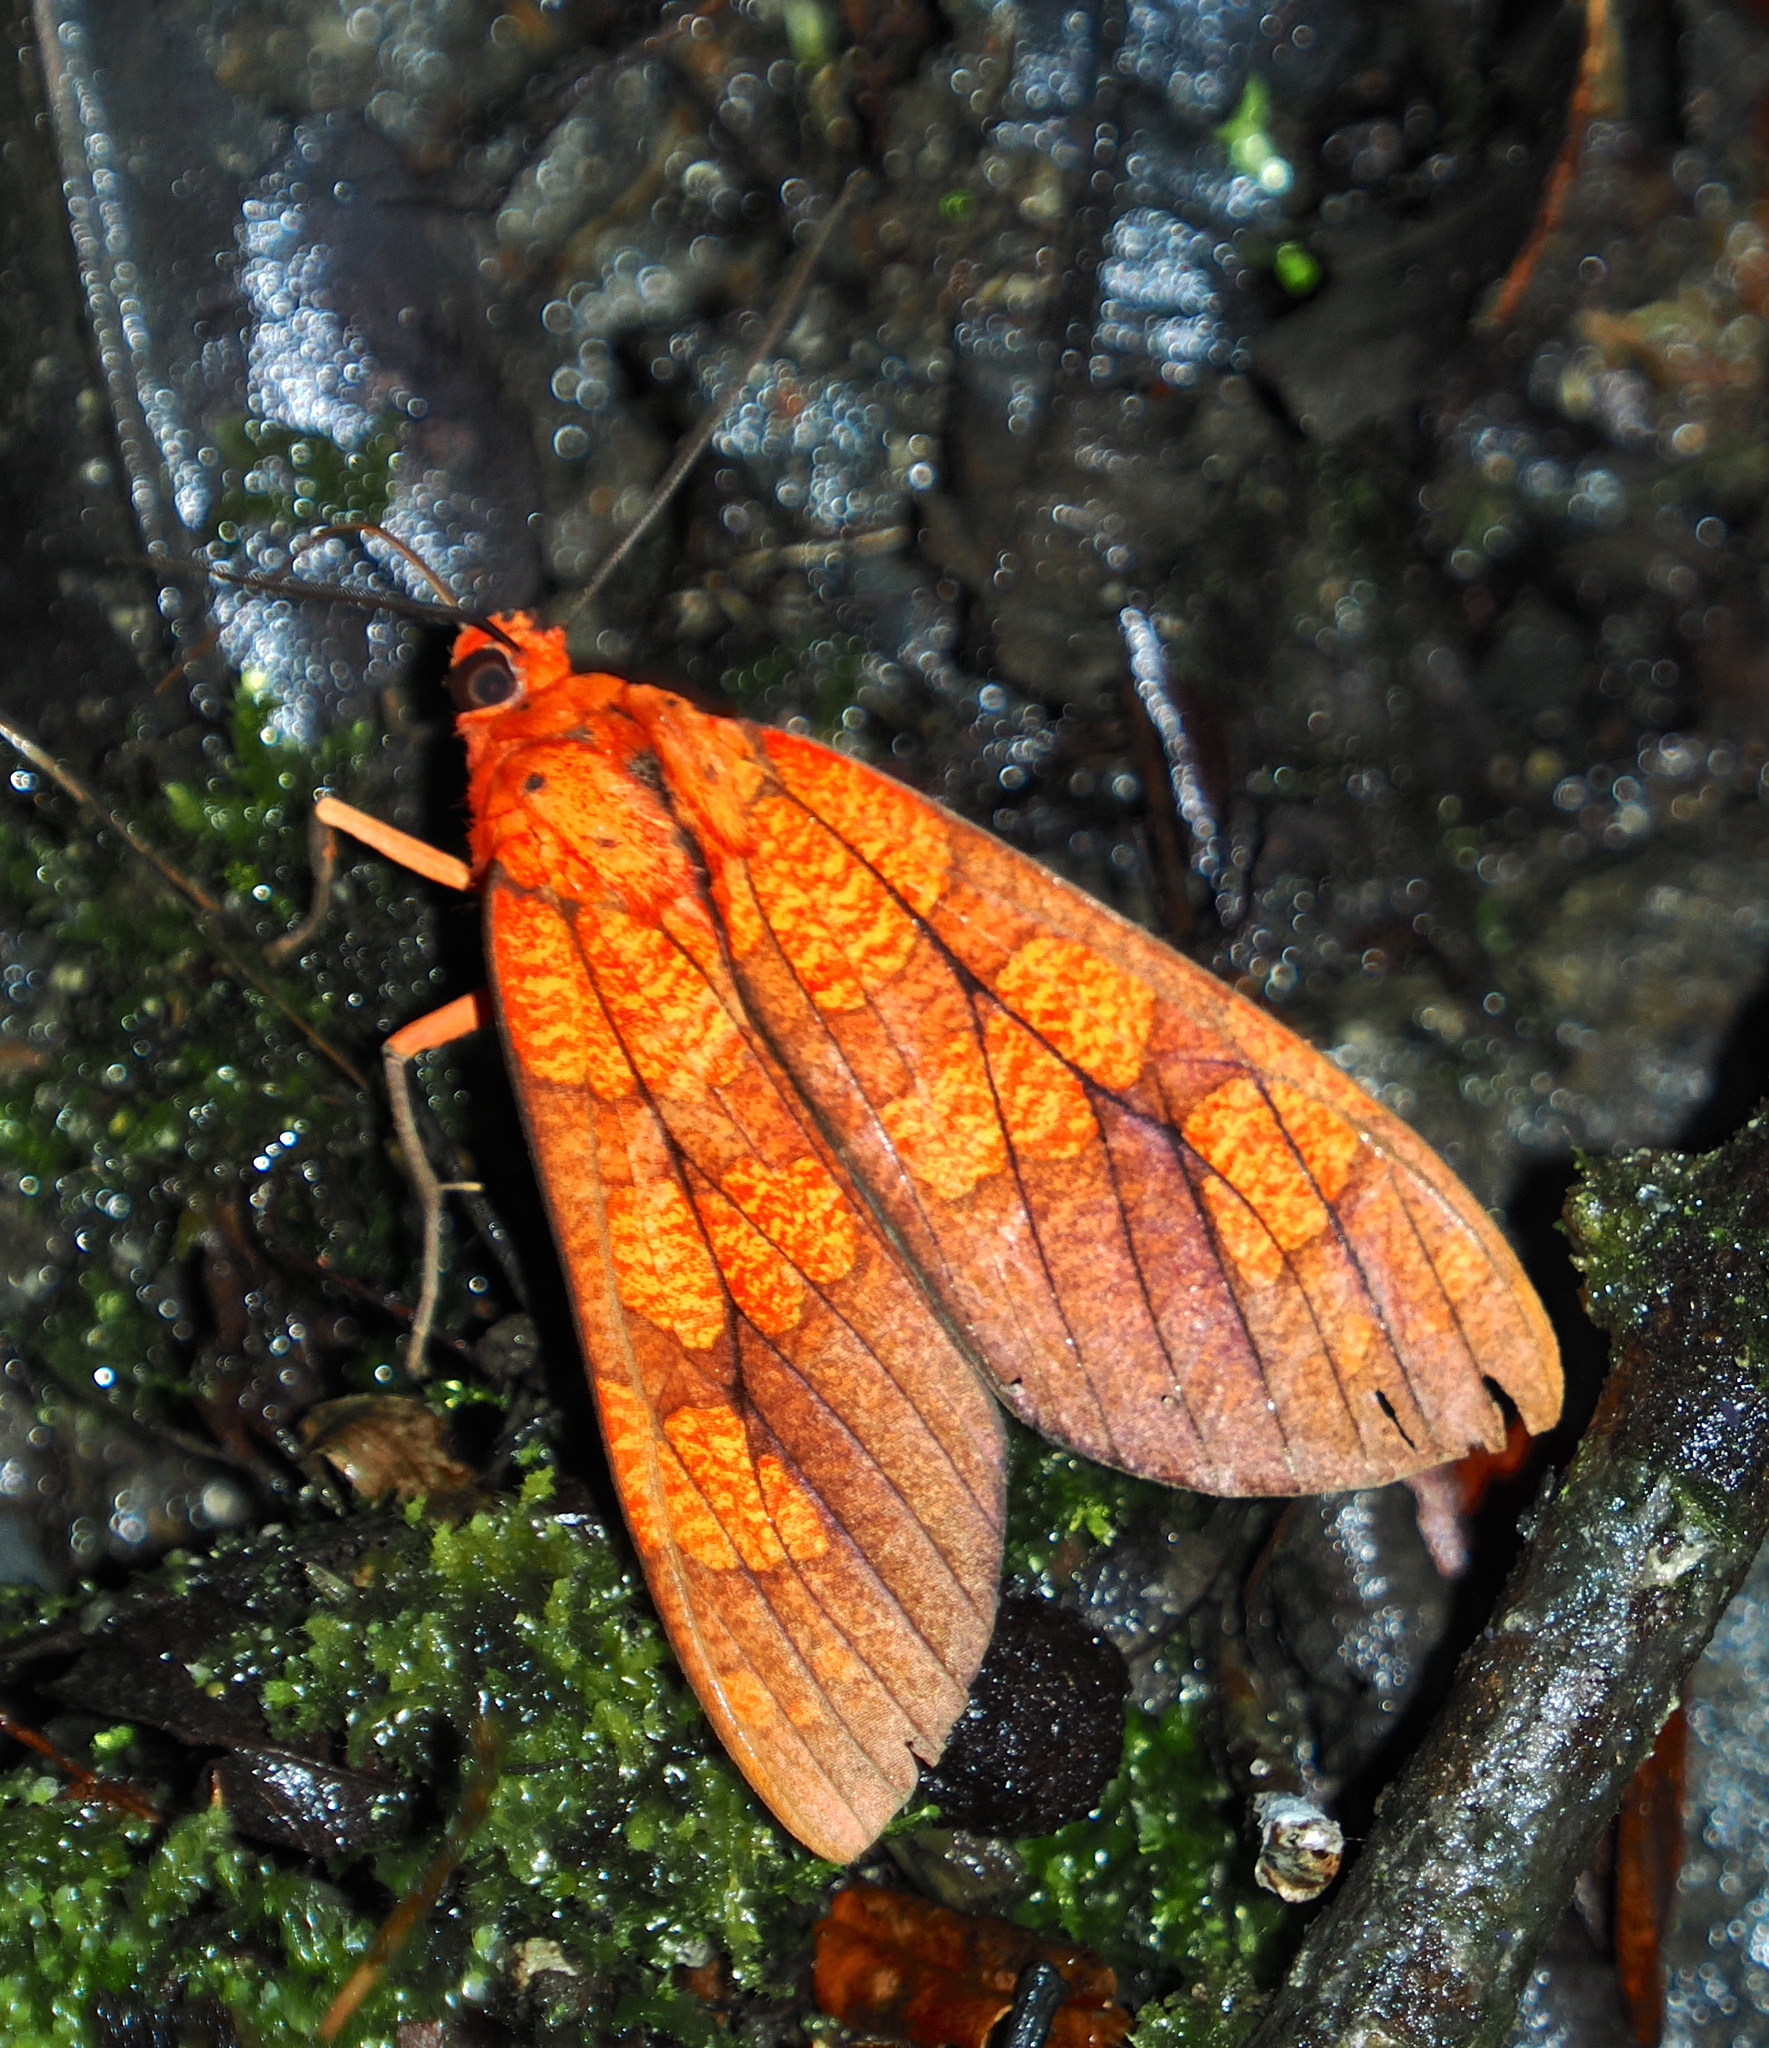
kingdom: Animalia
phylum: Arthropoda
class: Insecta
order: Lepidoptera
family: Erebidae
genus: Elysius
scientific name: Elysius conspersus
